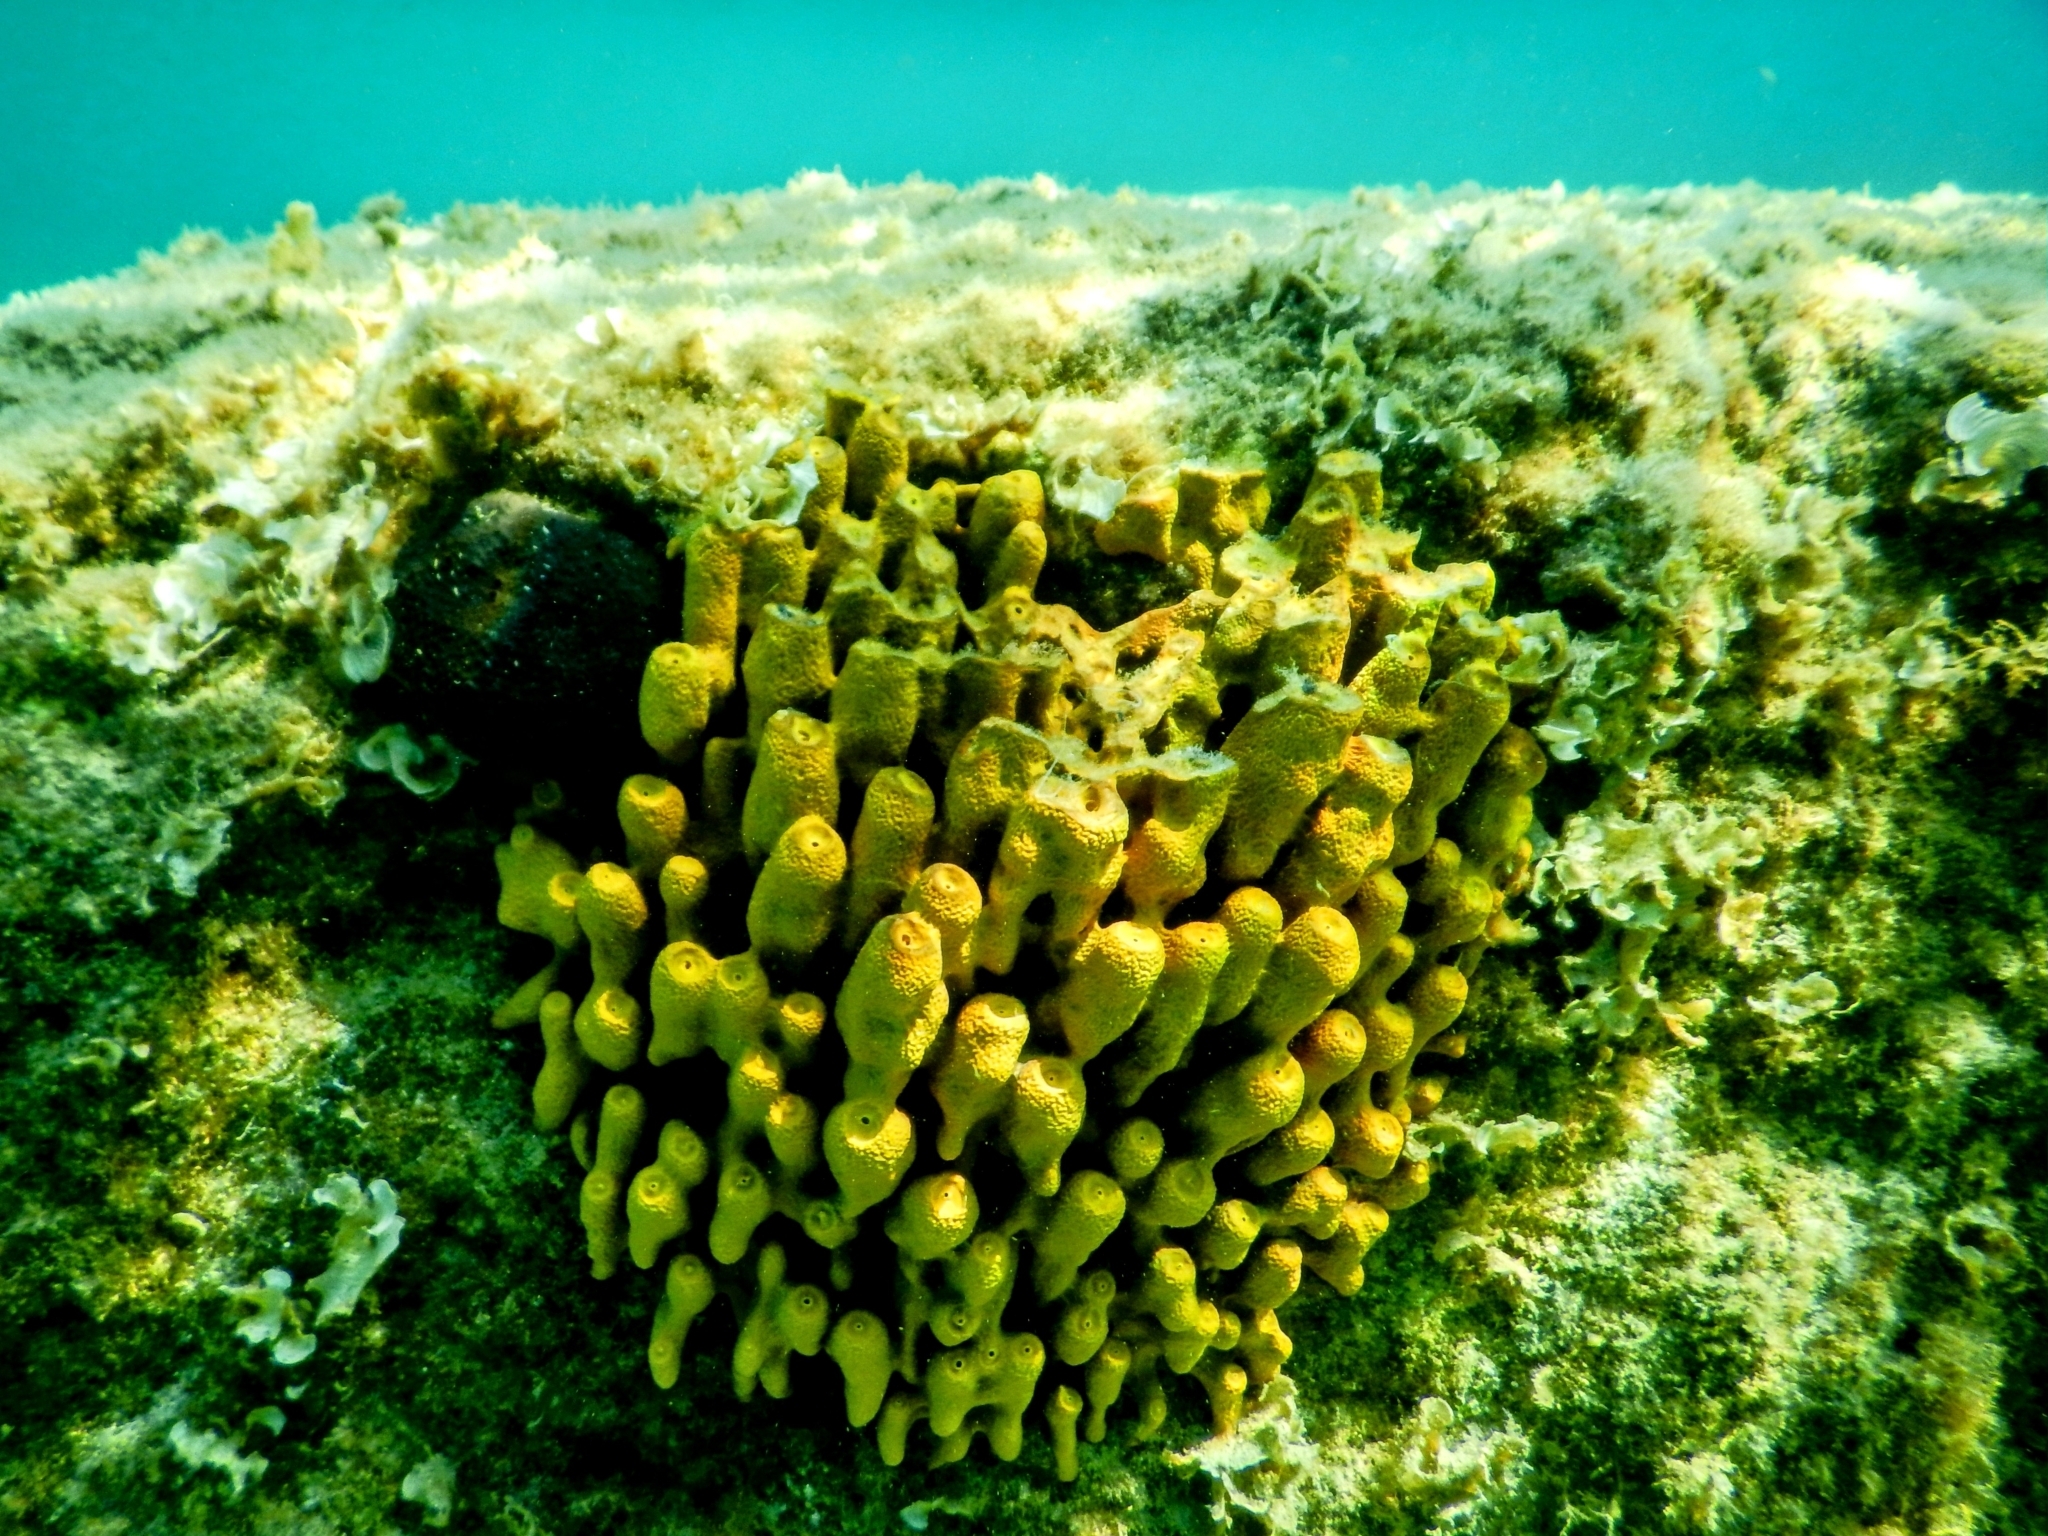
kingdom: Animalia
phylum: Porifera
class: Demospongiae
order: Verongiida
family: Aplysinidae
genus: Aplysina
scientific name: Aplysina aerophoba
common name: Aureate sponge
